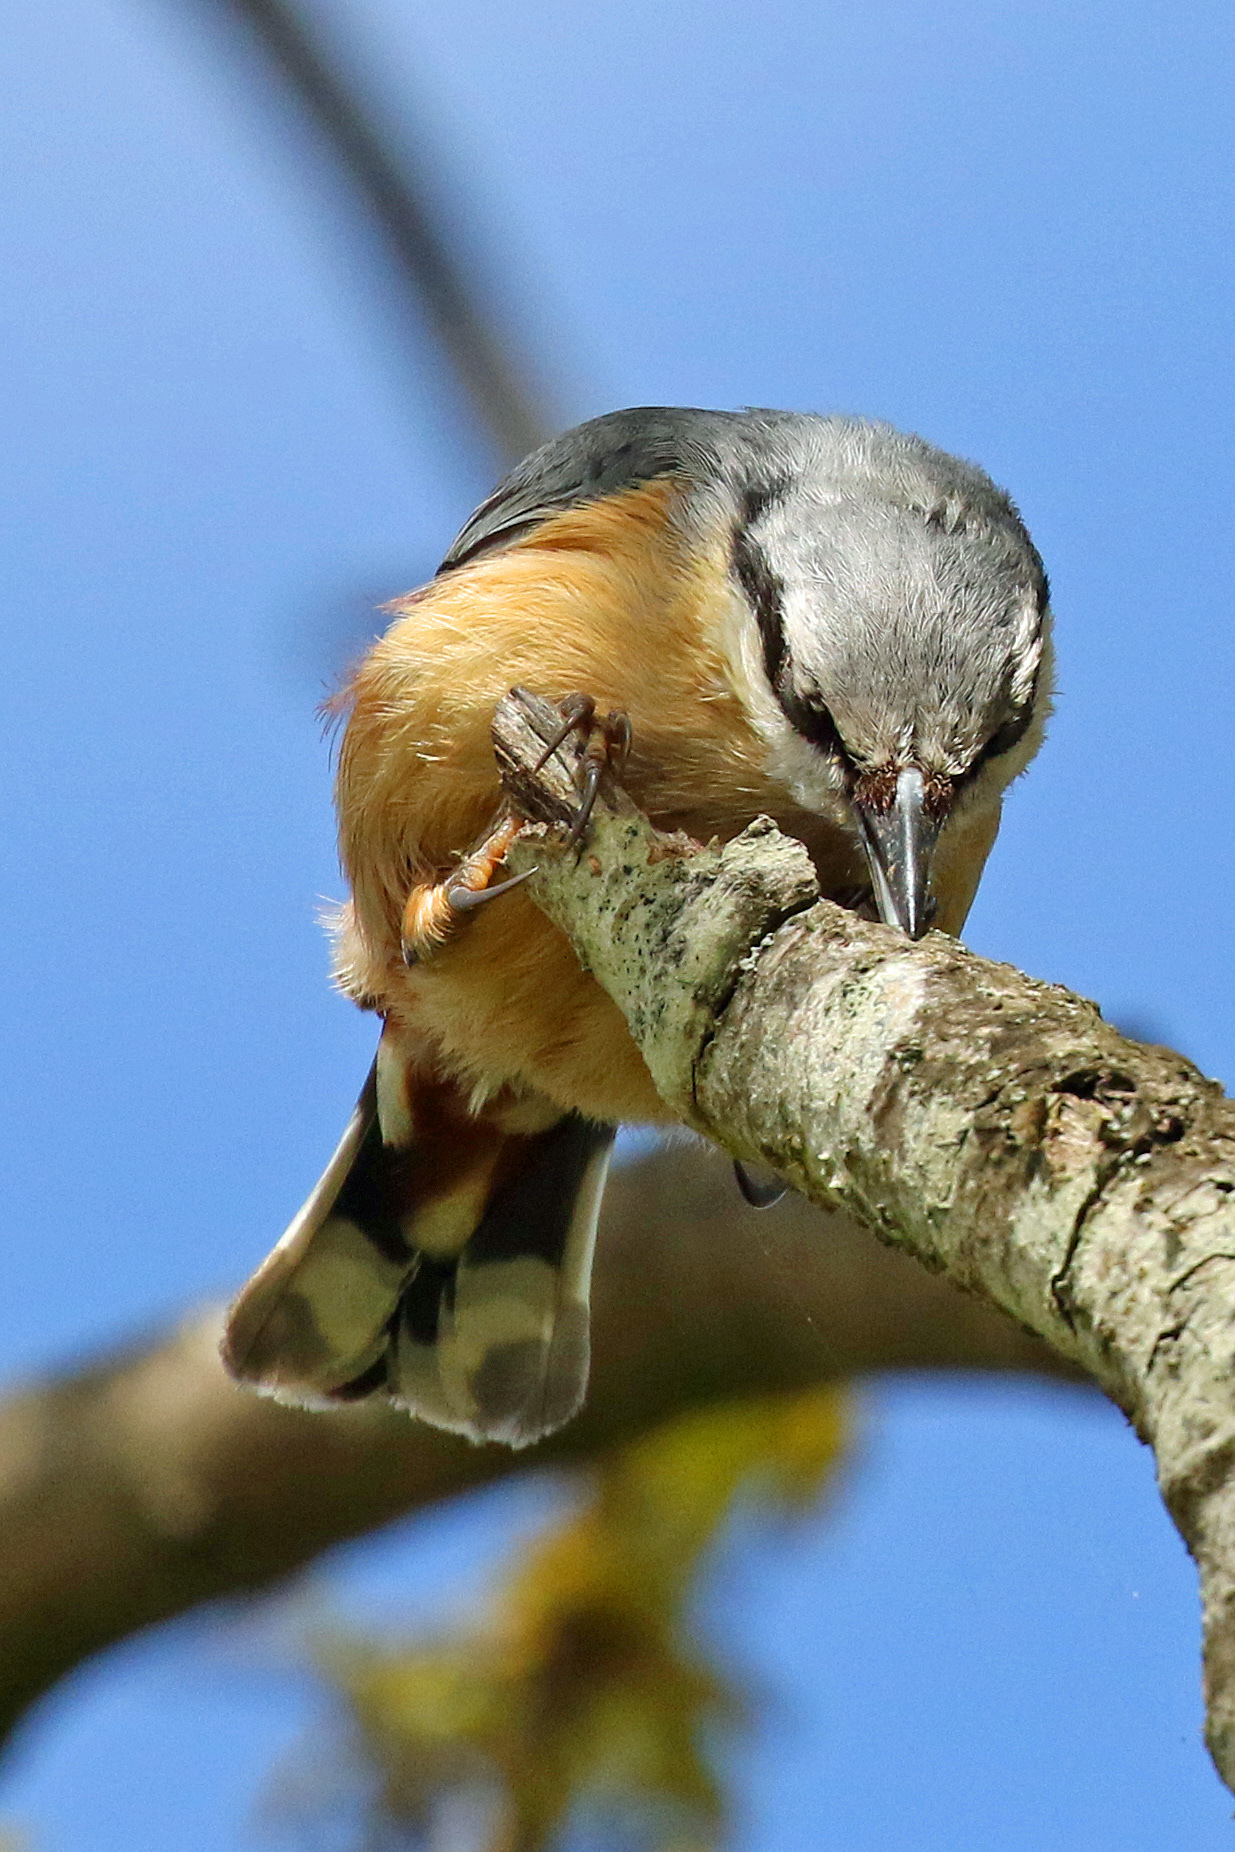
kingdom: Animalia
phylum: Chordata
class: Aves
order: Passeriformes
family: Sittidae
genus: Sitta
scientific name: Sitta europaea
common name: Eurasian nuthatch
